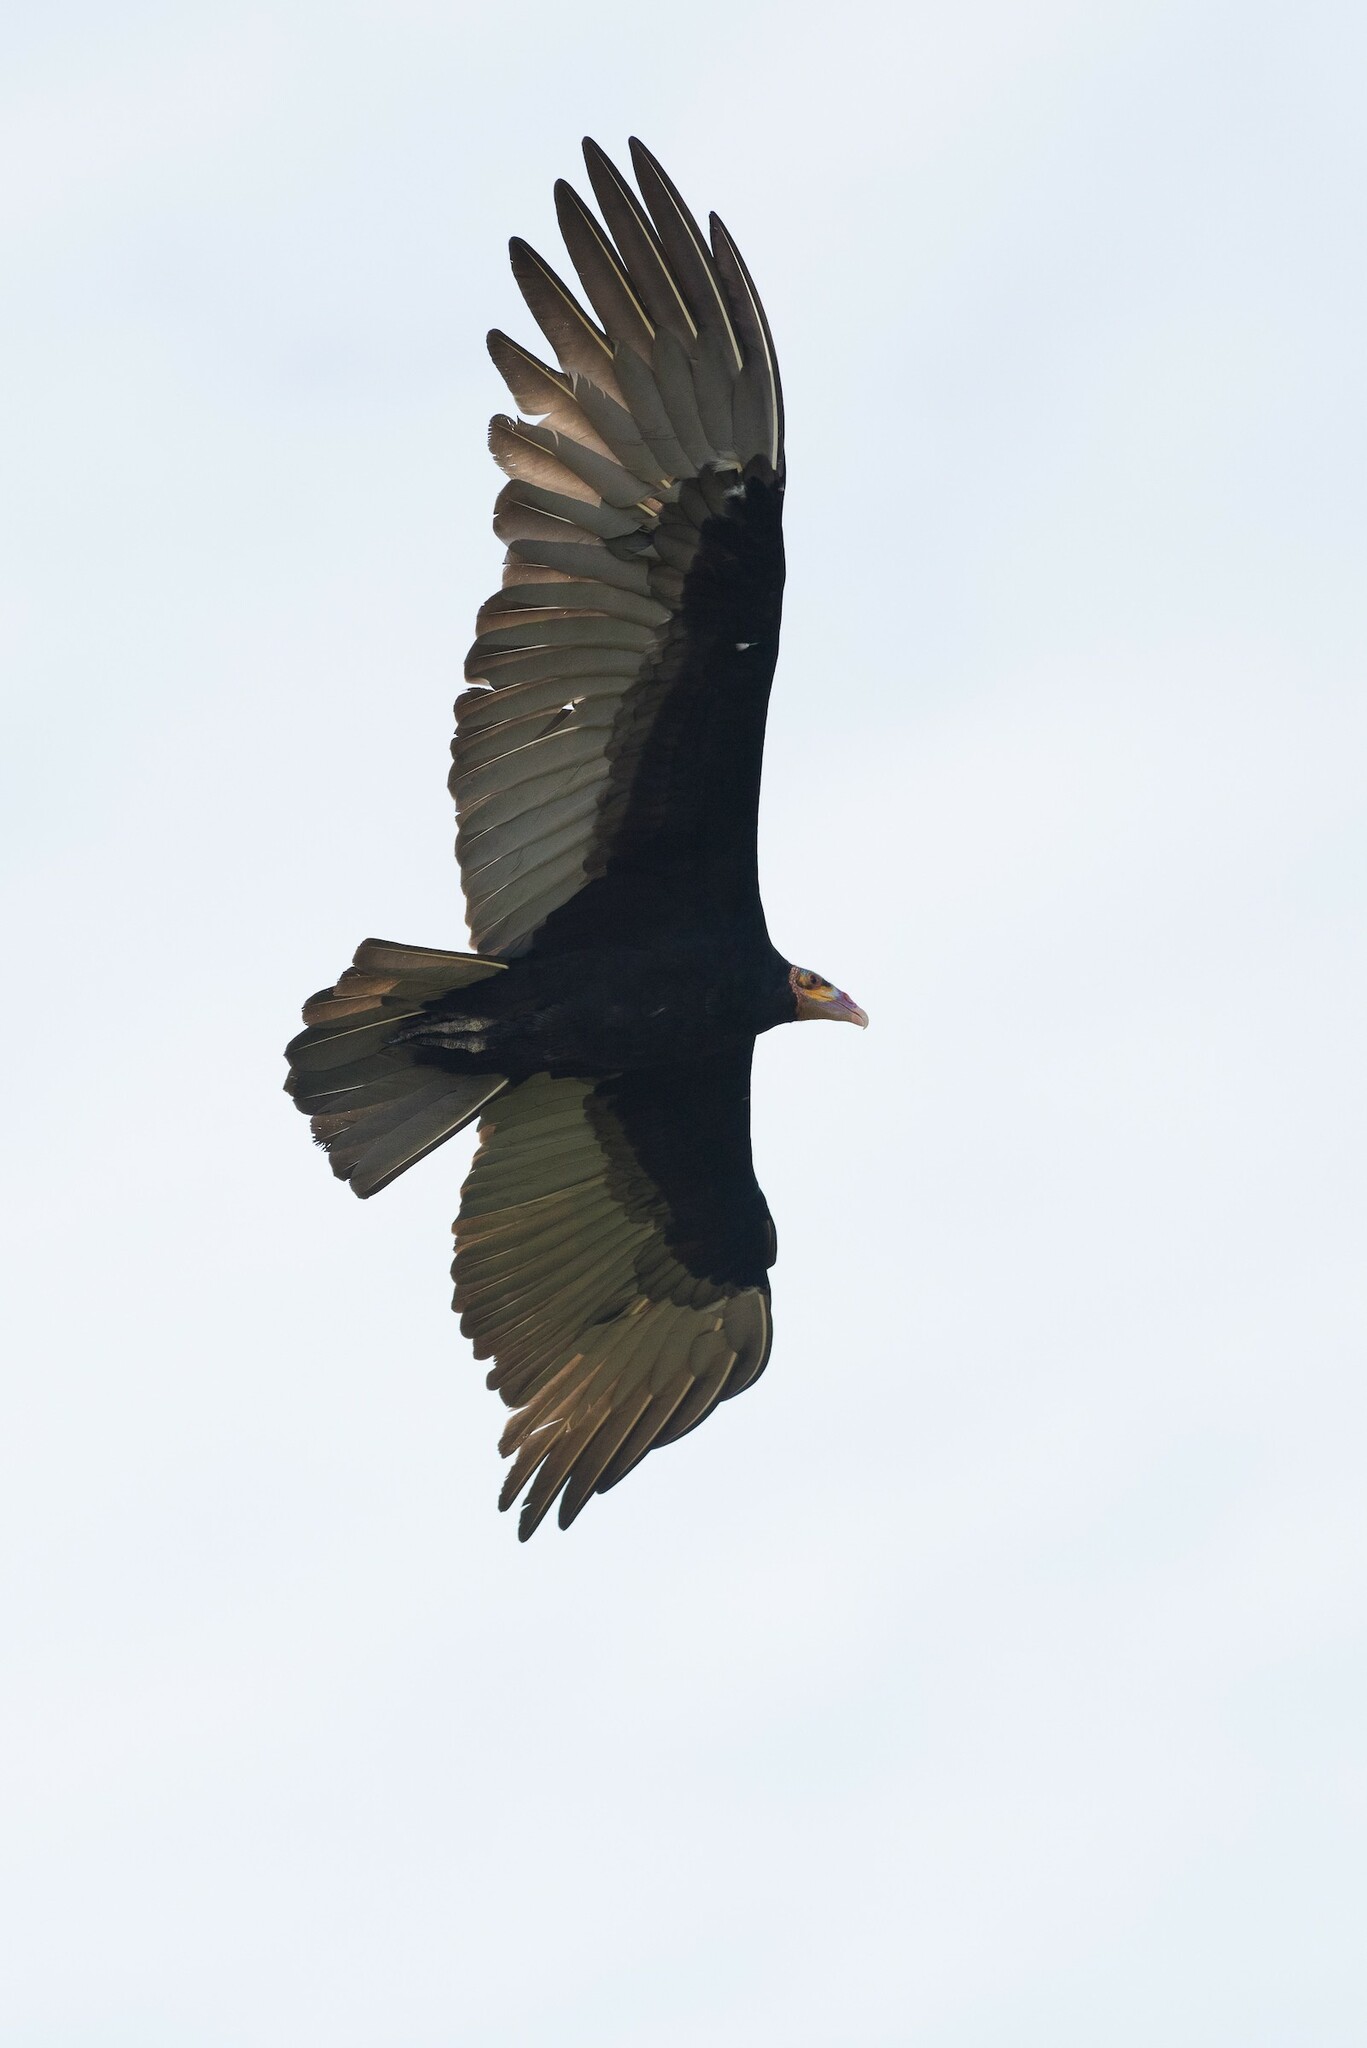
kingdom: Animalia
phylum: Chordata
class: Aves
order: Accipitriformes
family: Cathartidae
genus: Cathartes
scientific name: Cathartes burrovianus
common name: Lesser yellow-headed vulture
